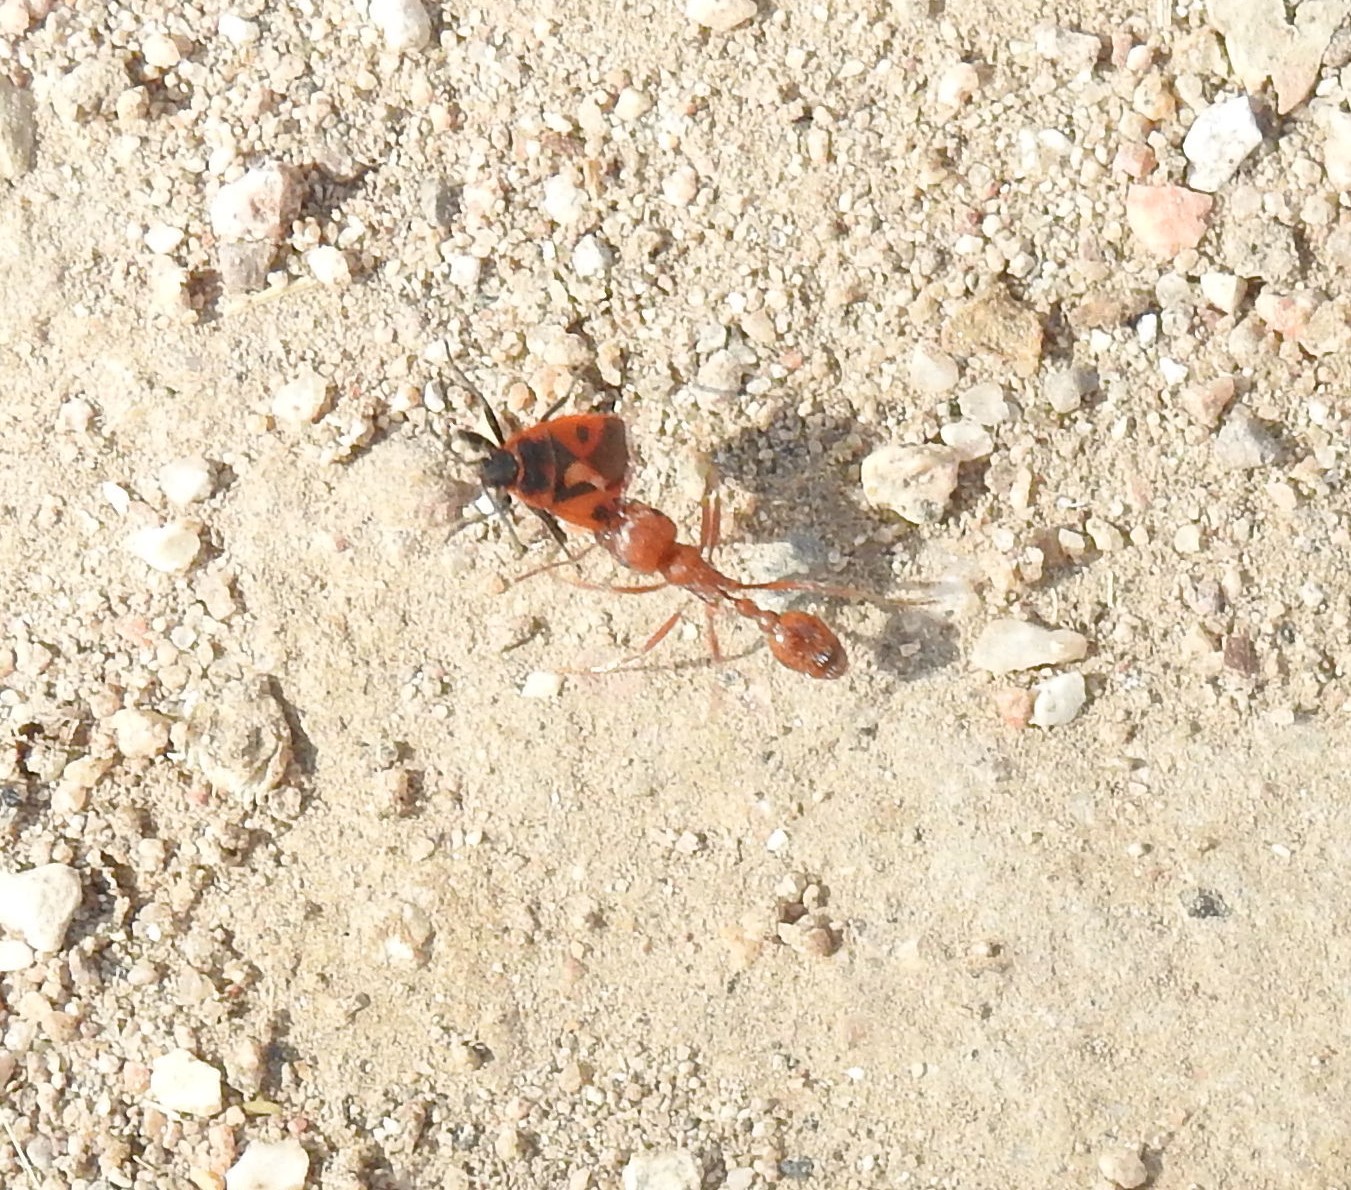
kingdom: Animalia
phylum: Arthropoda
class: Insecta
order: Hemiptera
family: Pyrrhocoridae
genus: Scantius
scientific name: Scantius aegyptius
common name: Red bug
